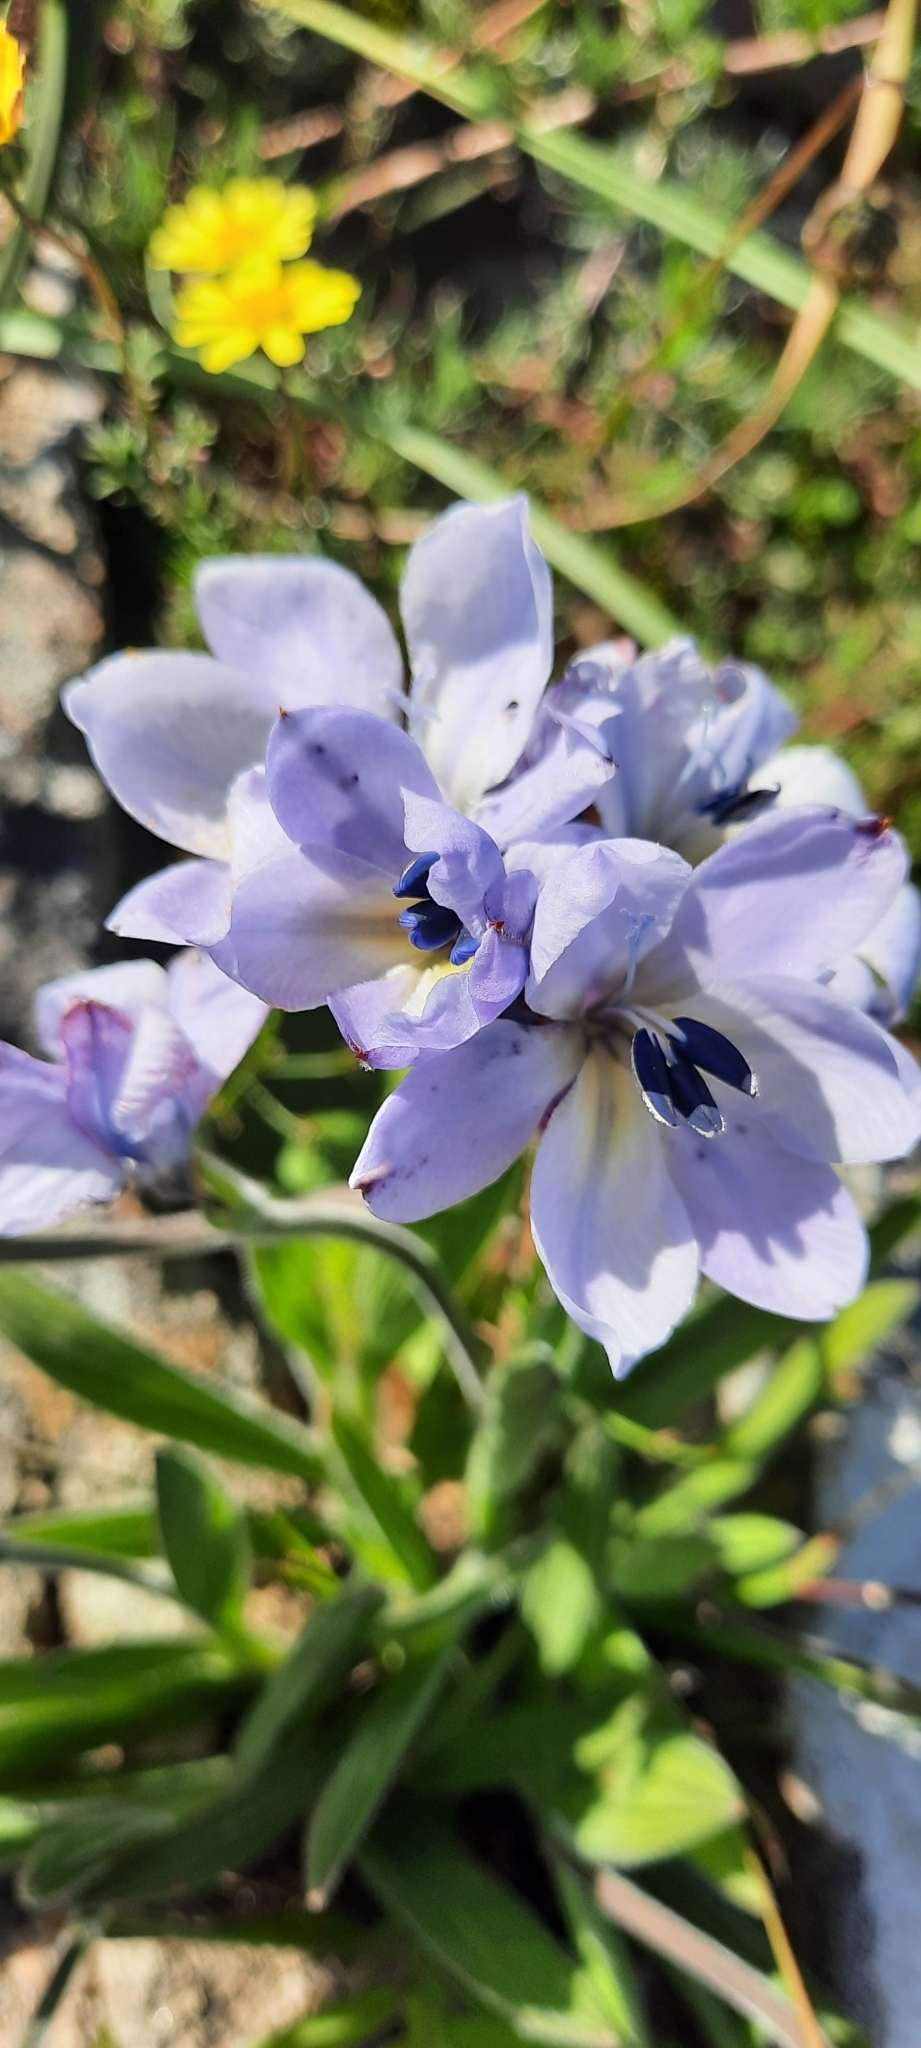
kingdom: Plantae
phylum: Tracheophyta
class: Liliopsida
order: Asparagales
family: Iridaceae
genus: Babiana
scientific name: Babiana nervosa
